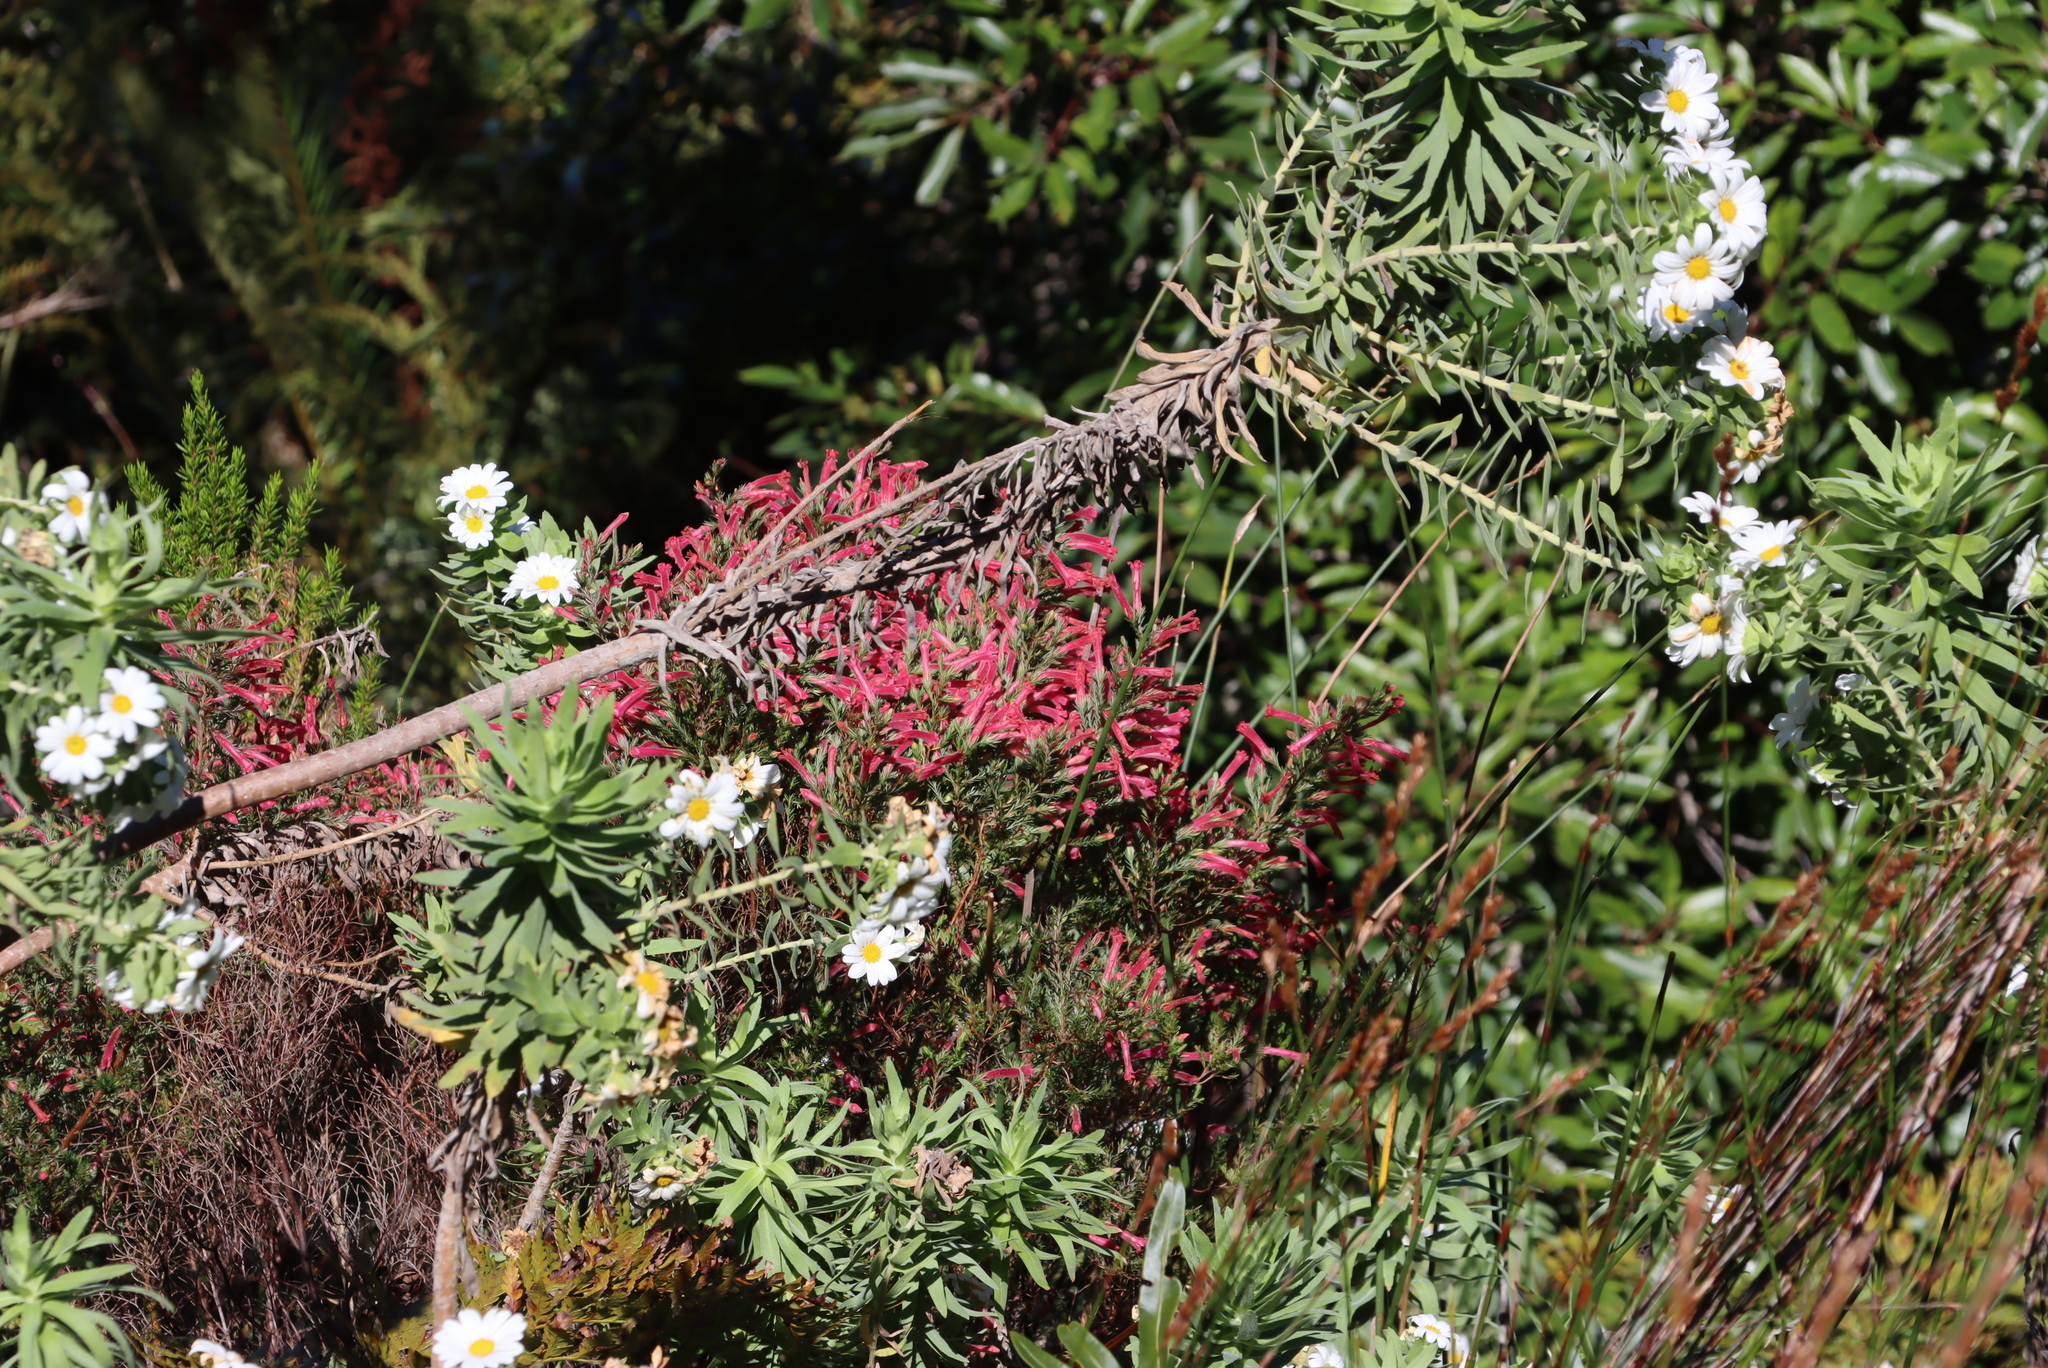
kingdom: Plantae
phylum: Tracheophyta
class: Magnoliopsida
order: Ericales
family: Ericaceae
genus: Erica
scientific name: Erica curviflora
